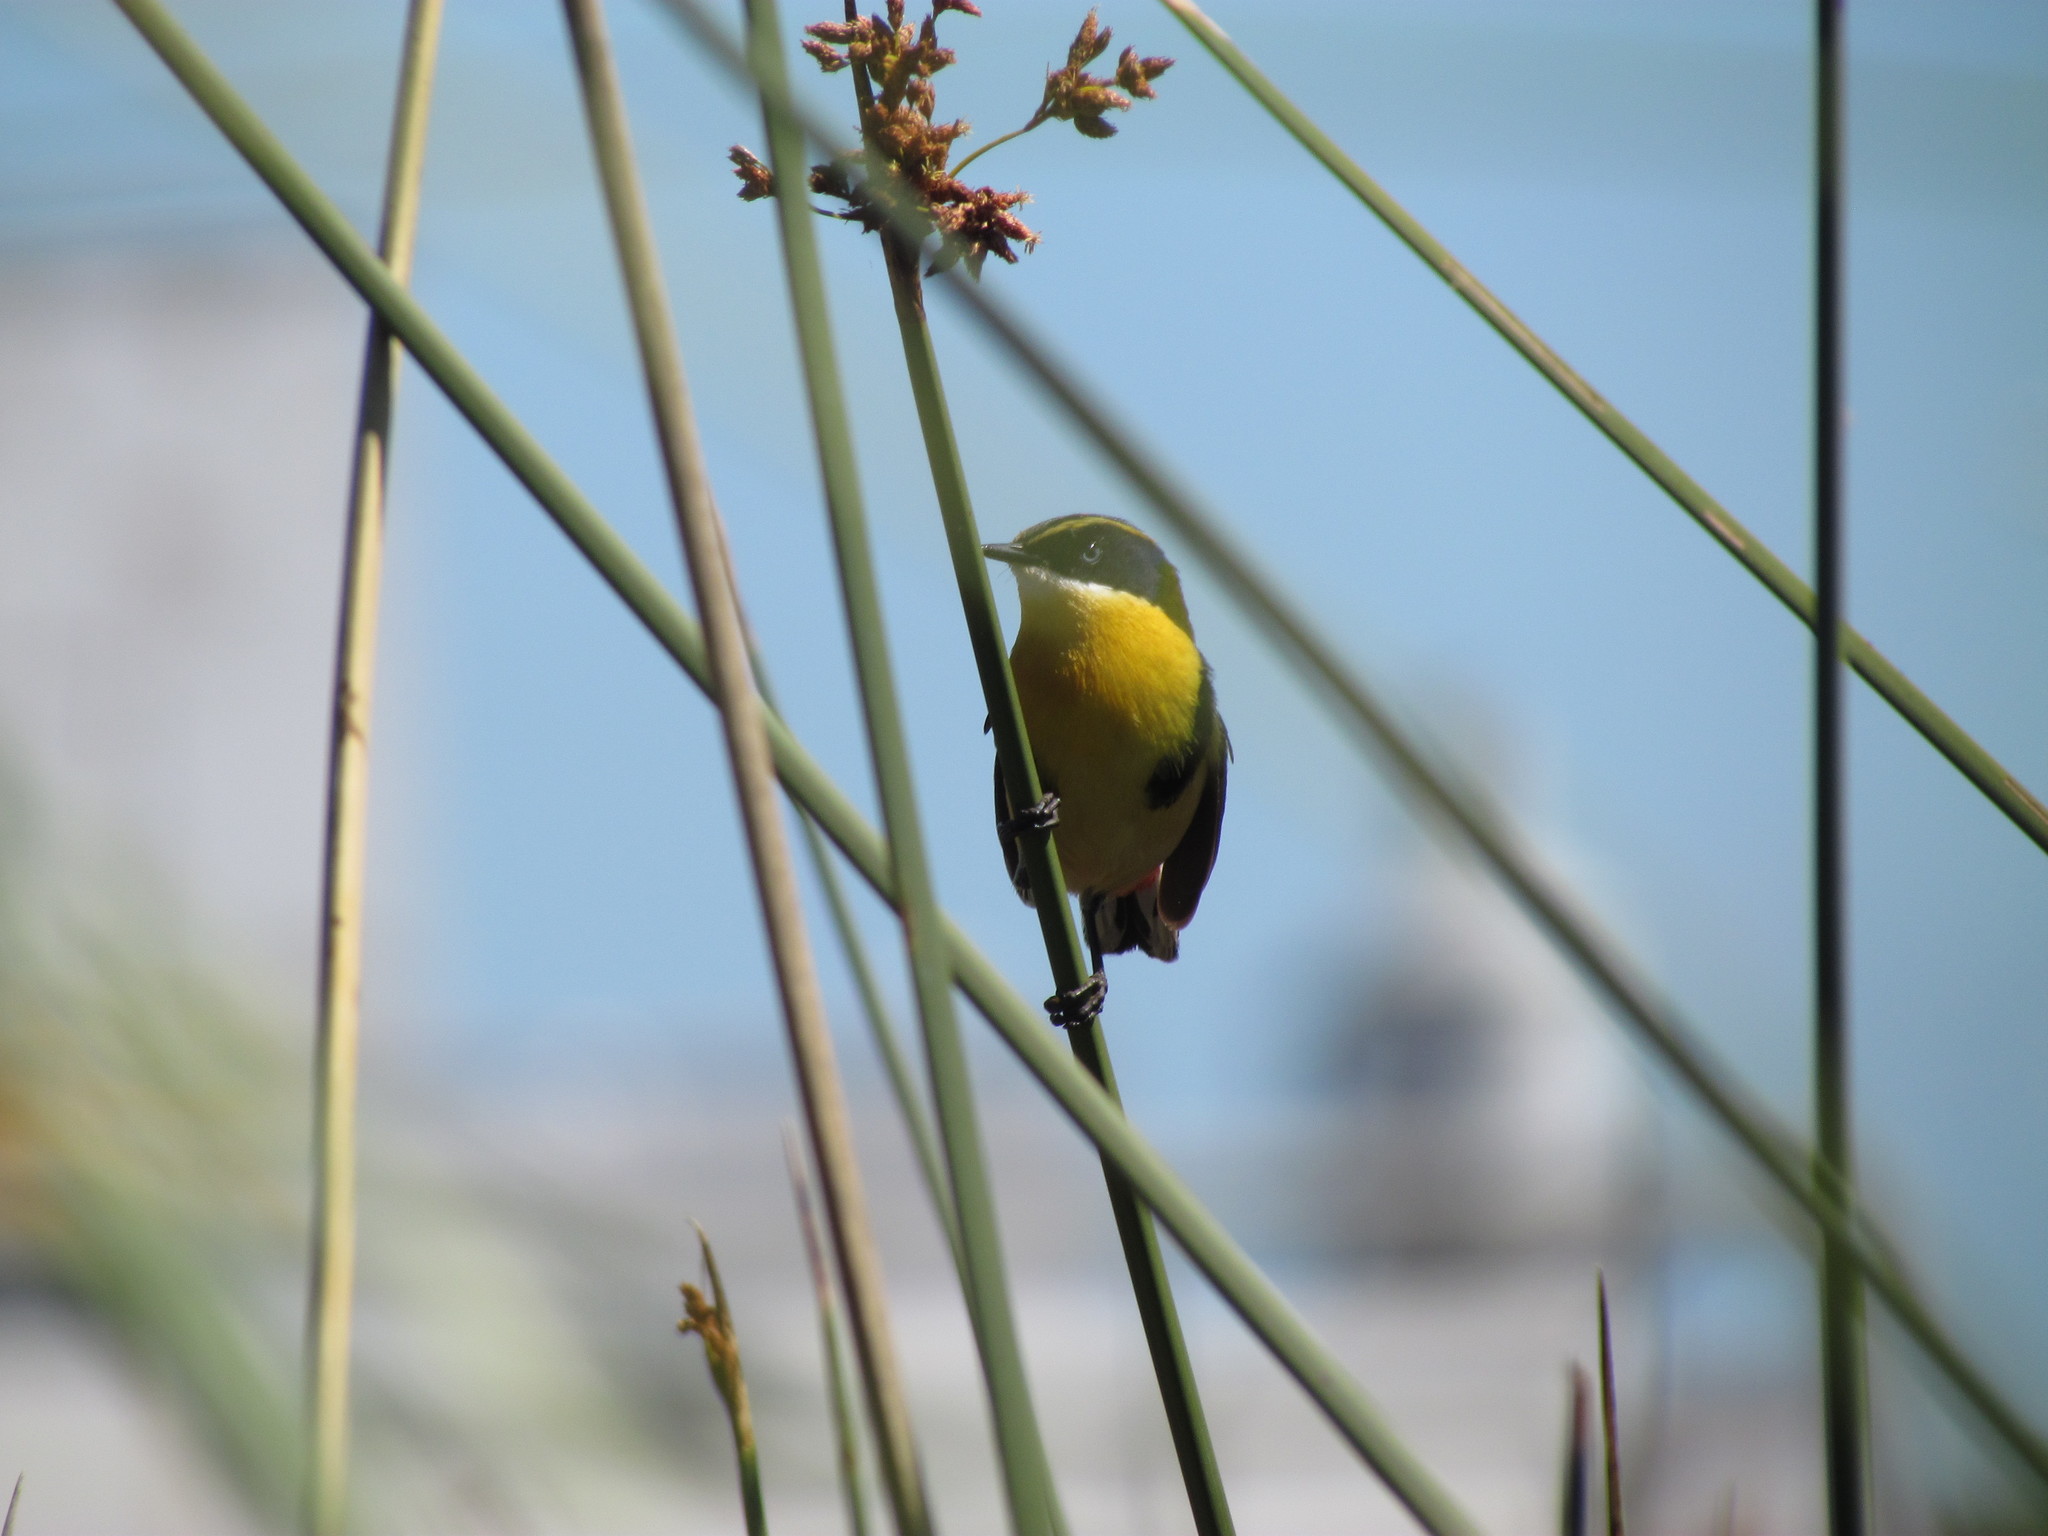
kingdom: Animalia
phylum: Chordata
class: Aves
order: Passeriformes
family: Tyrannidae
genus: Tachuris
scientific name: Tachuris rubrigastra
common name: Many-colored rush tyrant
